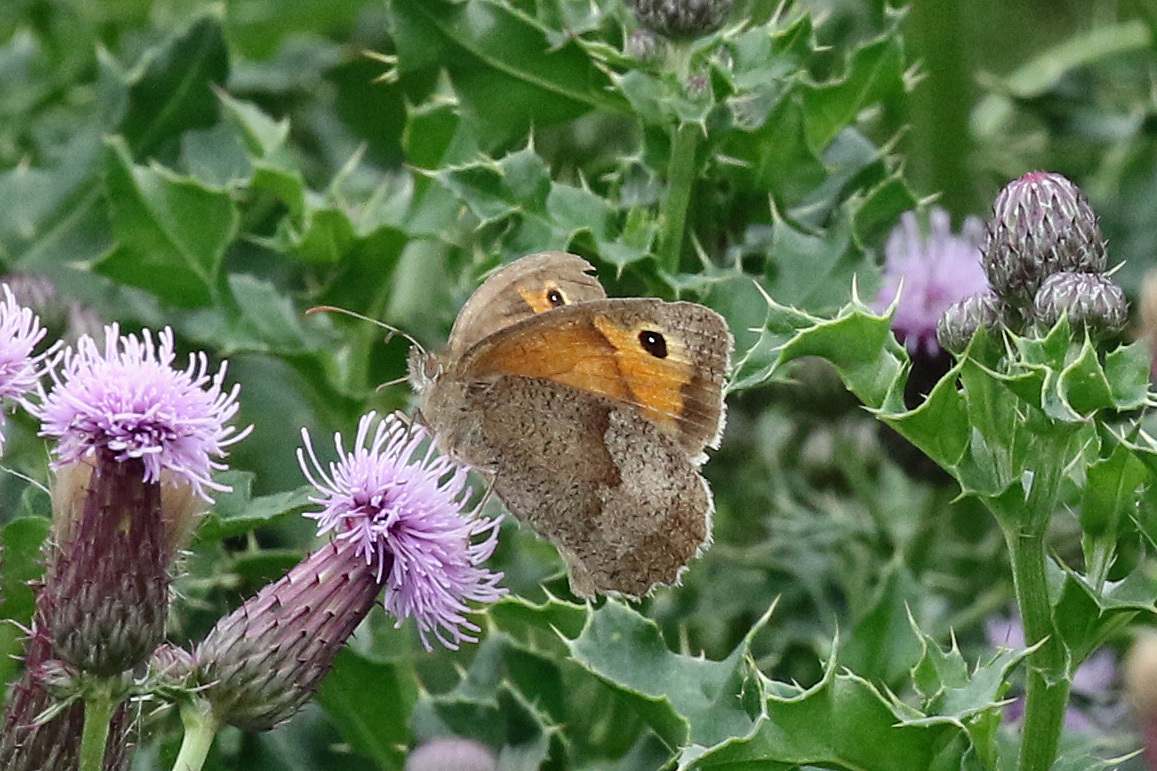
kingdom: Animalia
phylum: Arthropoda
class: Insecta
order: Lepidoptera
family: Nymphalidae
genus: Maniola
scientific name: Maniola jurtina
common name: Meadow brown
